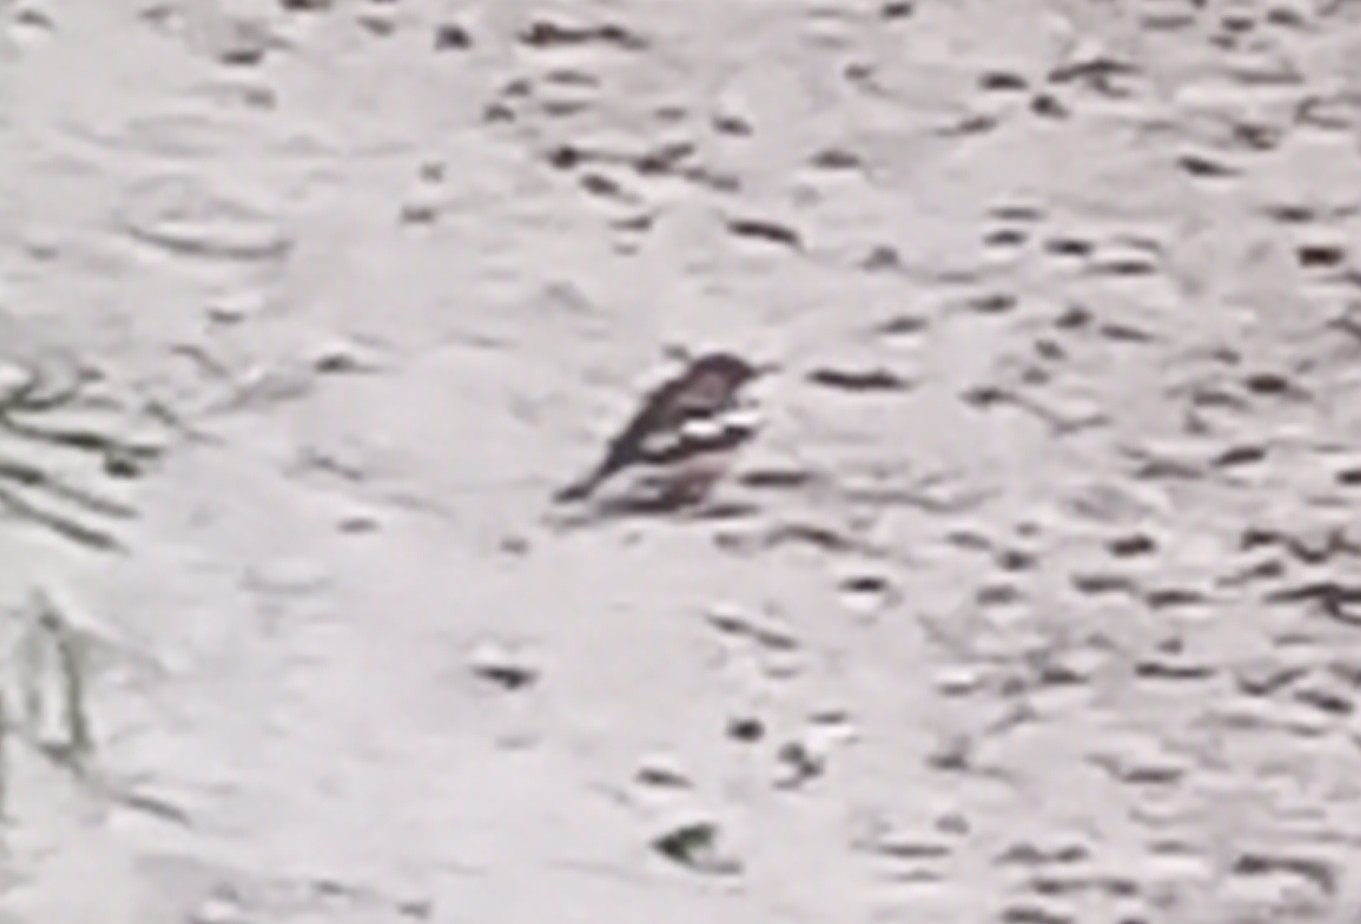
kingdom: Animalia
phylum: Chordata
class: Aves
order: Passeriformes
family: Fringillidae
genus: Fringilla
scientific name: Fringilla coelebs
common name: Common chaffinch
